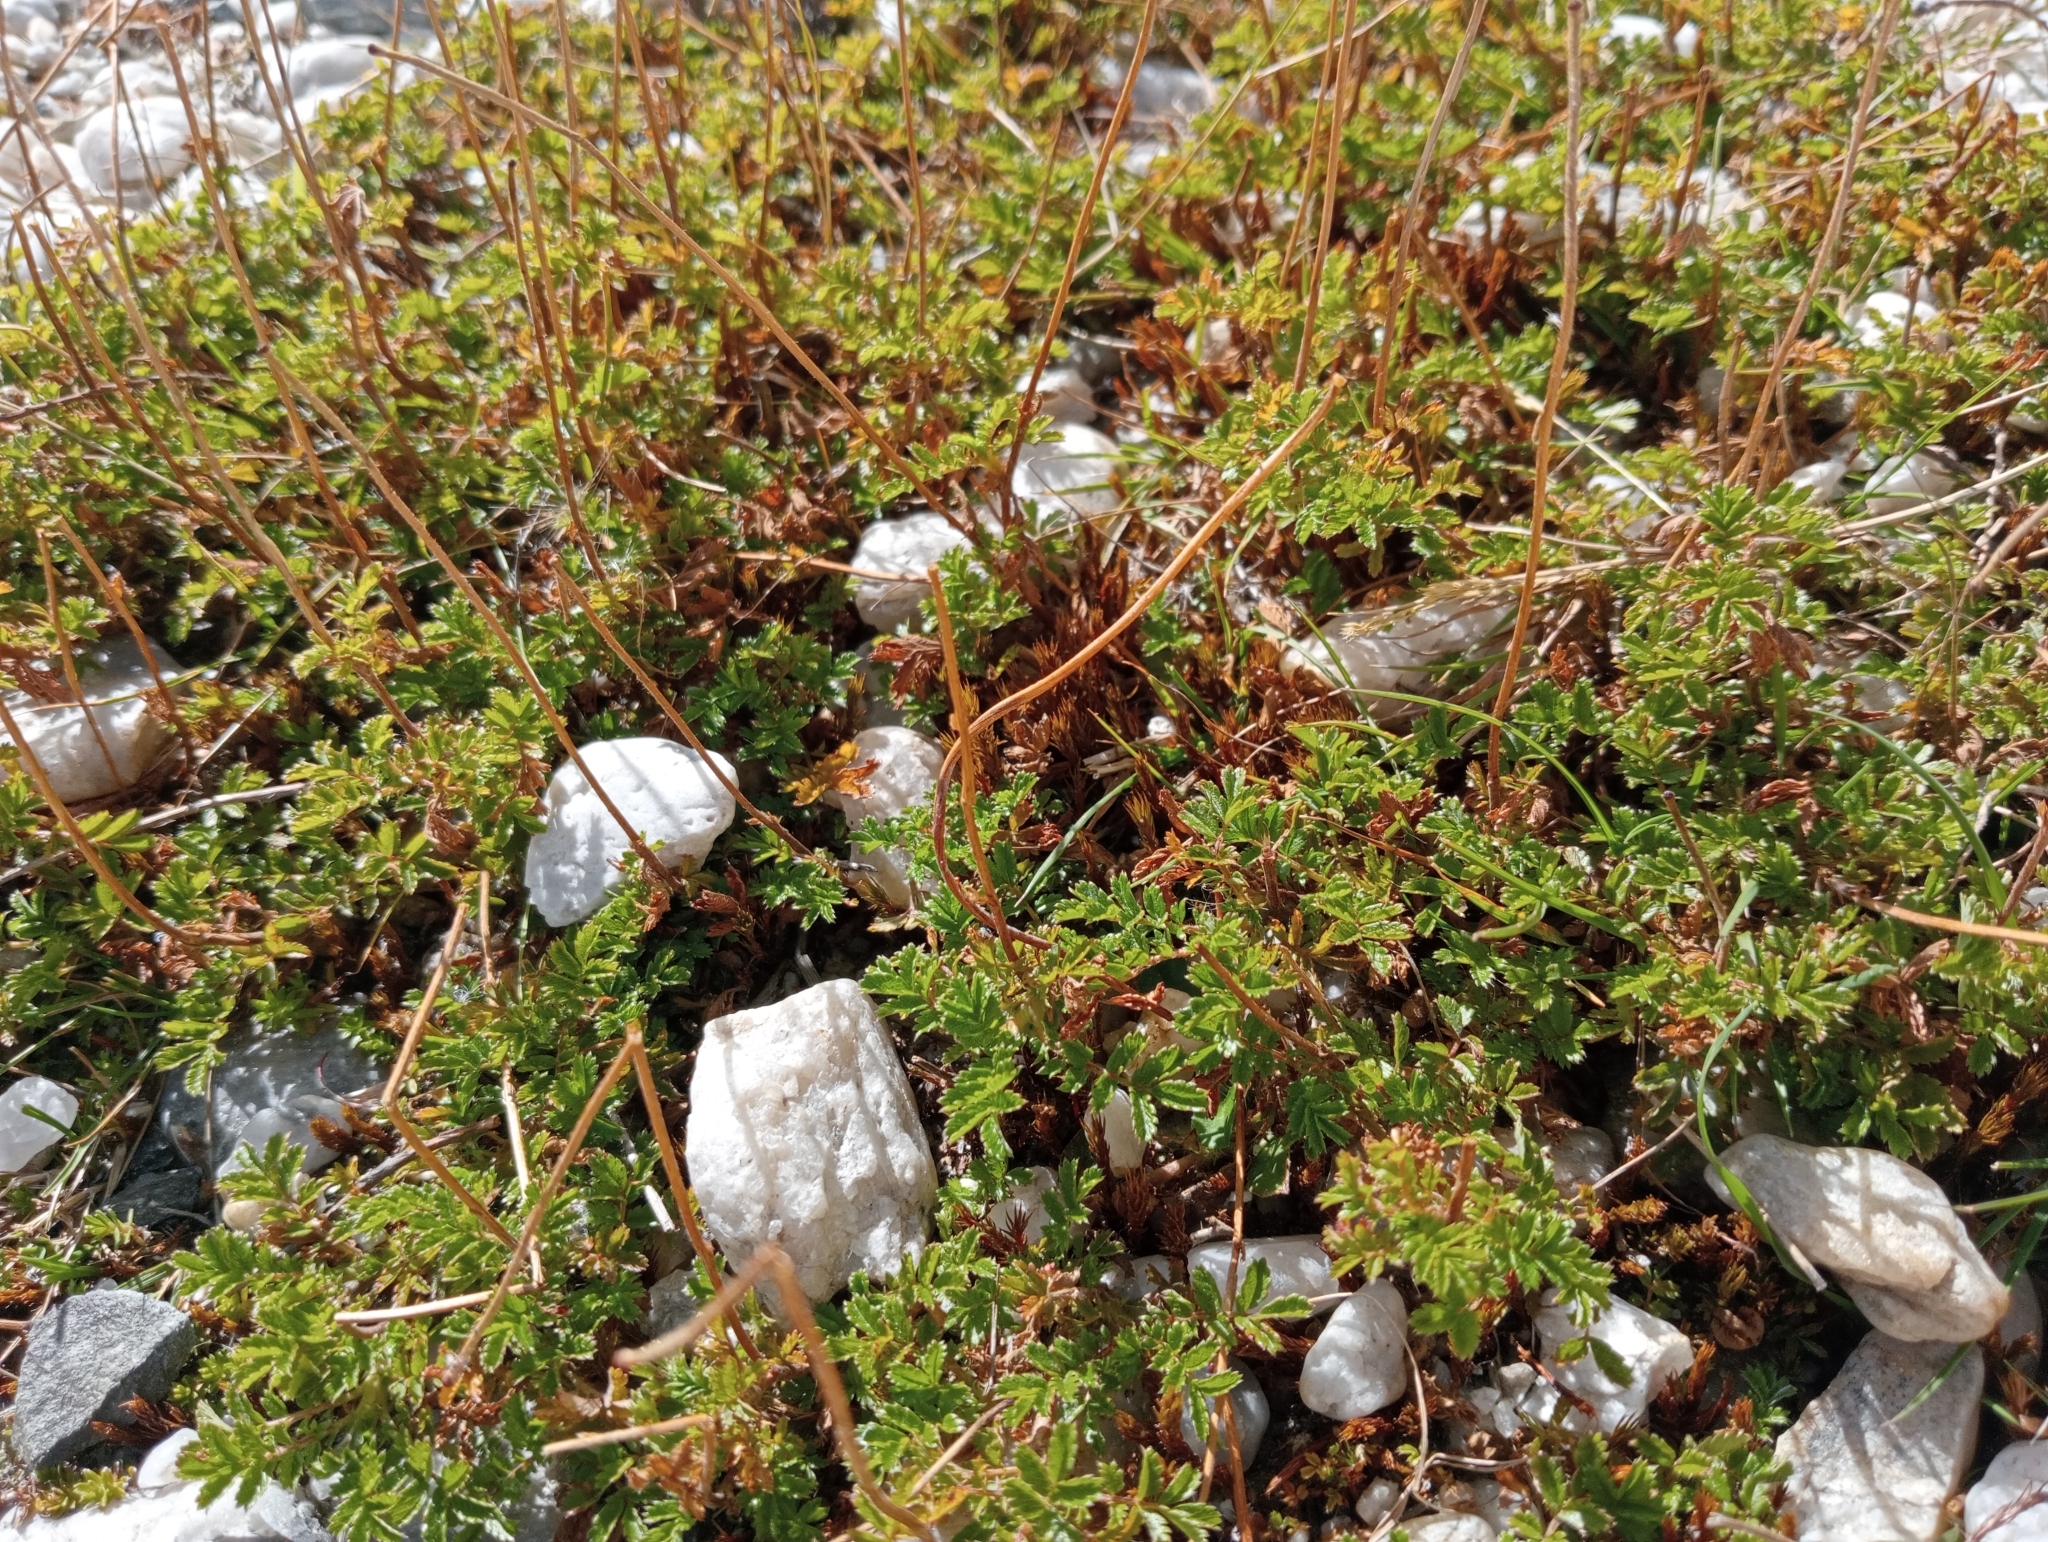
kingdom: Plantae
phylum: Tracheophyta
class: Magnoliopsida
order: Rosales
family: Rosaceae
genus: Acaena
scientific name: Acaena novae-zelandiae
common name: Pirri-pirri-bur
